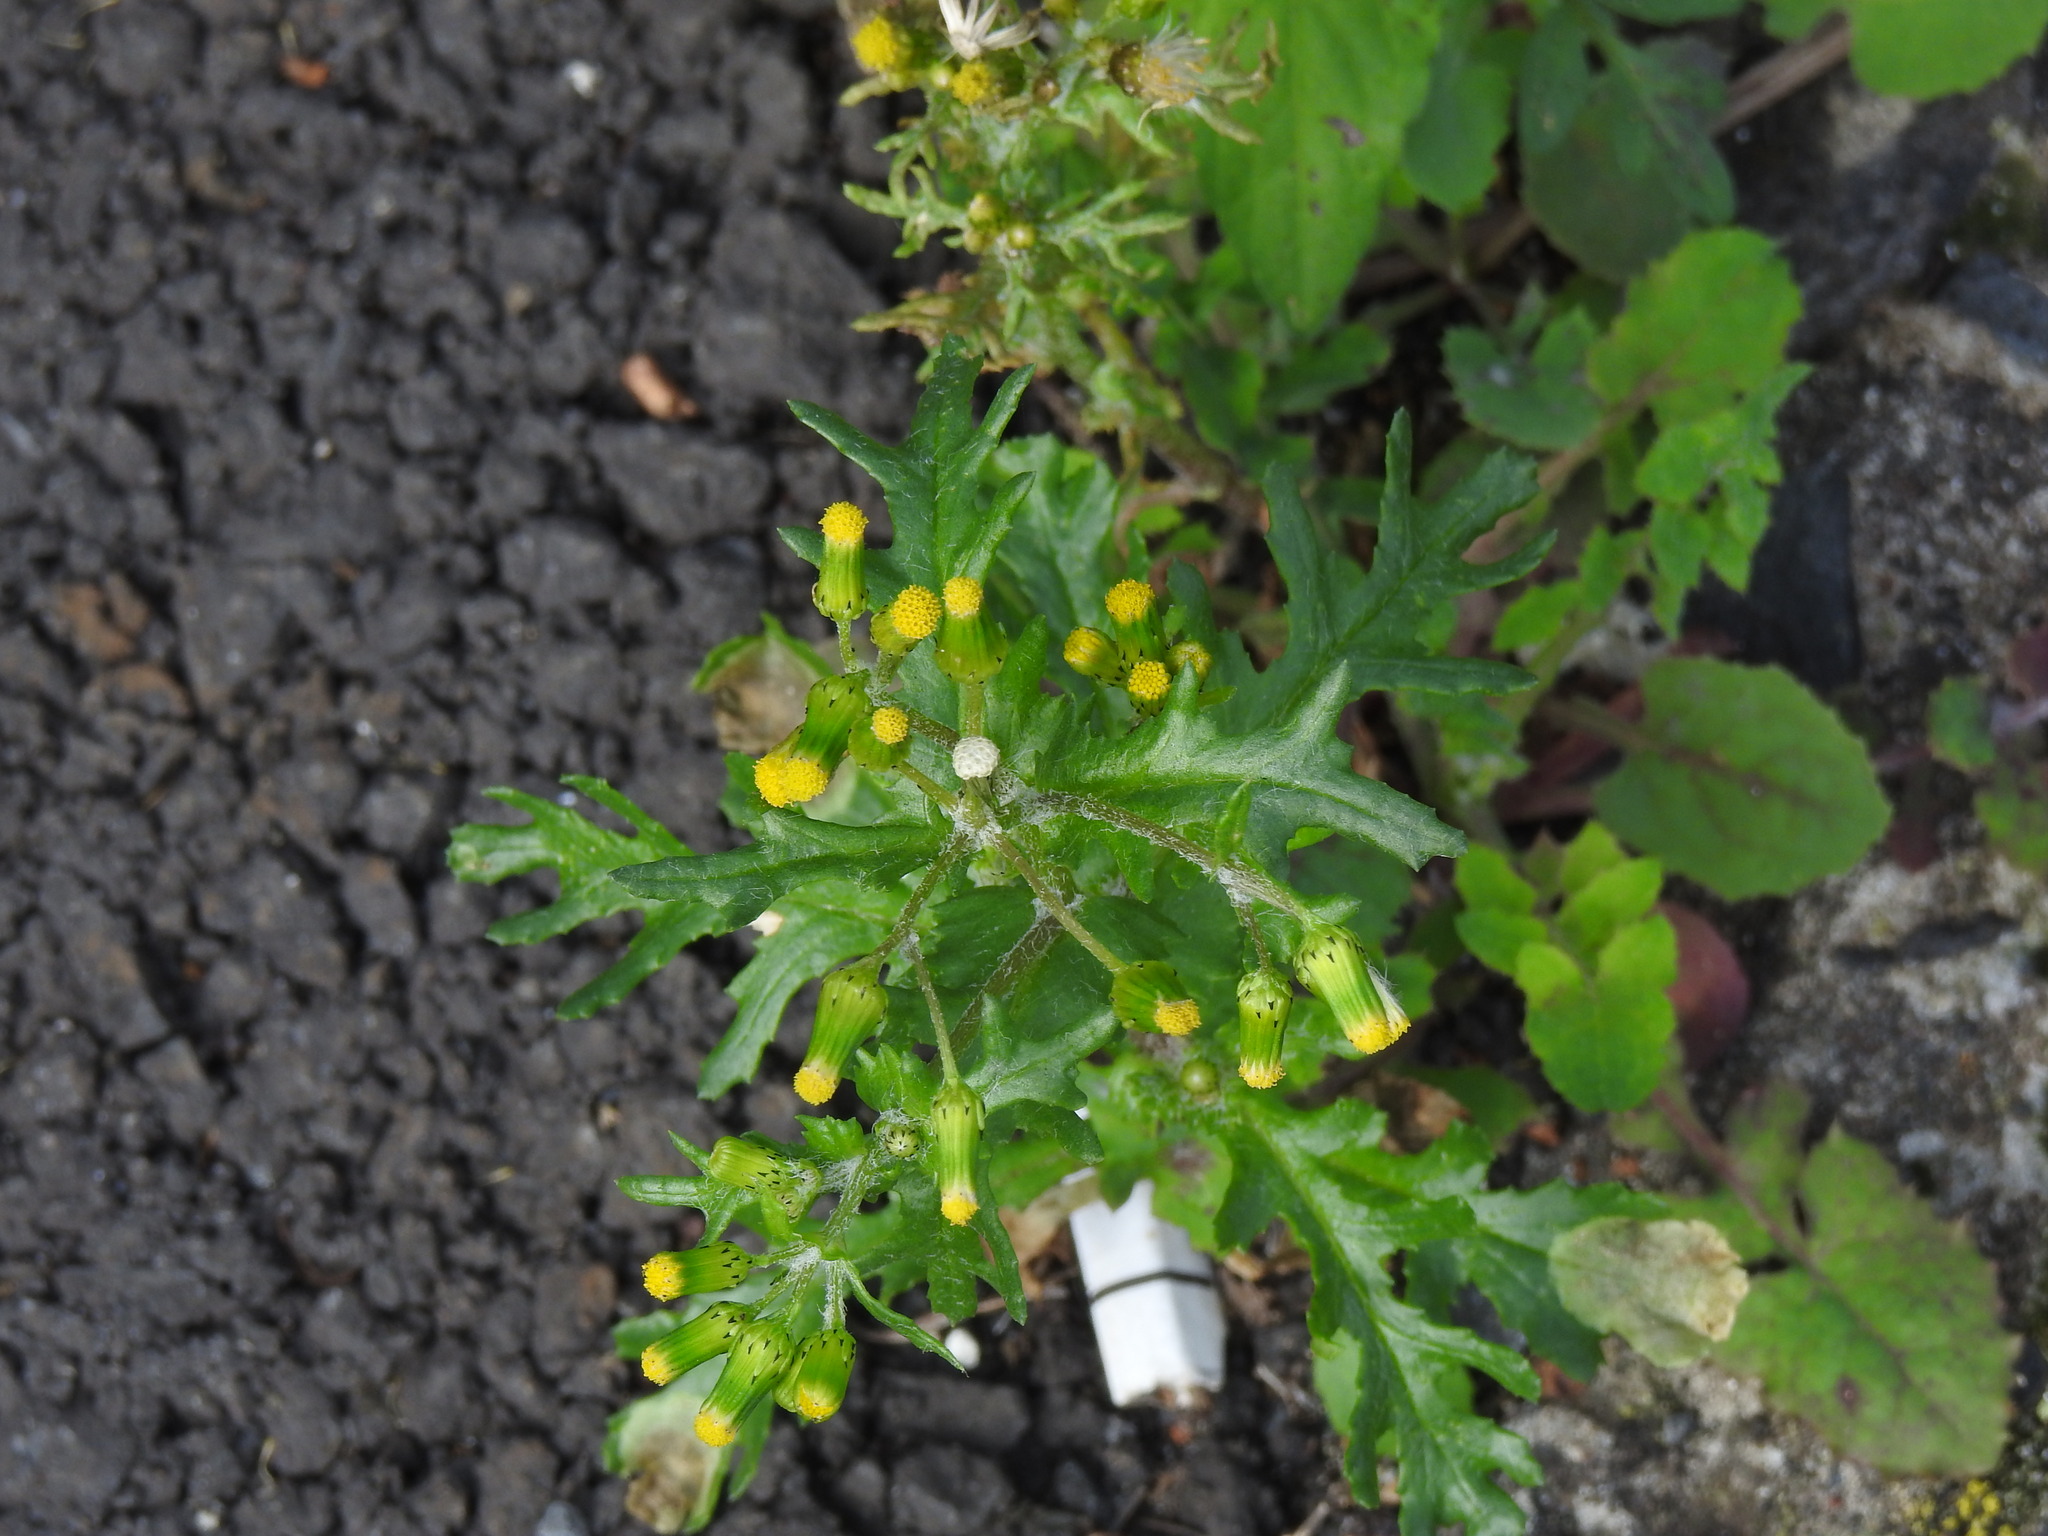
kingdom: Plantae
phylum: Tracheophyta
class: Magnoliopsida
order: Asterales
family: Asteraceae
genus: Senecio
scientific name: Senecio vulgaris
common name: Old-man-in-the-spring
